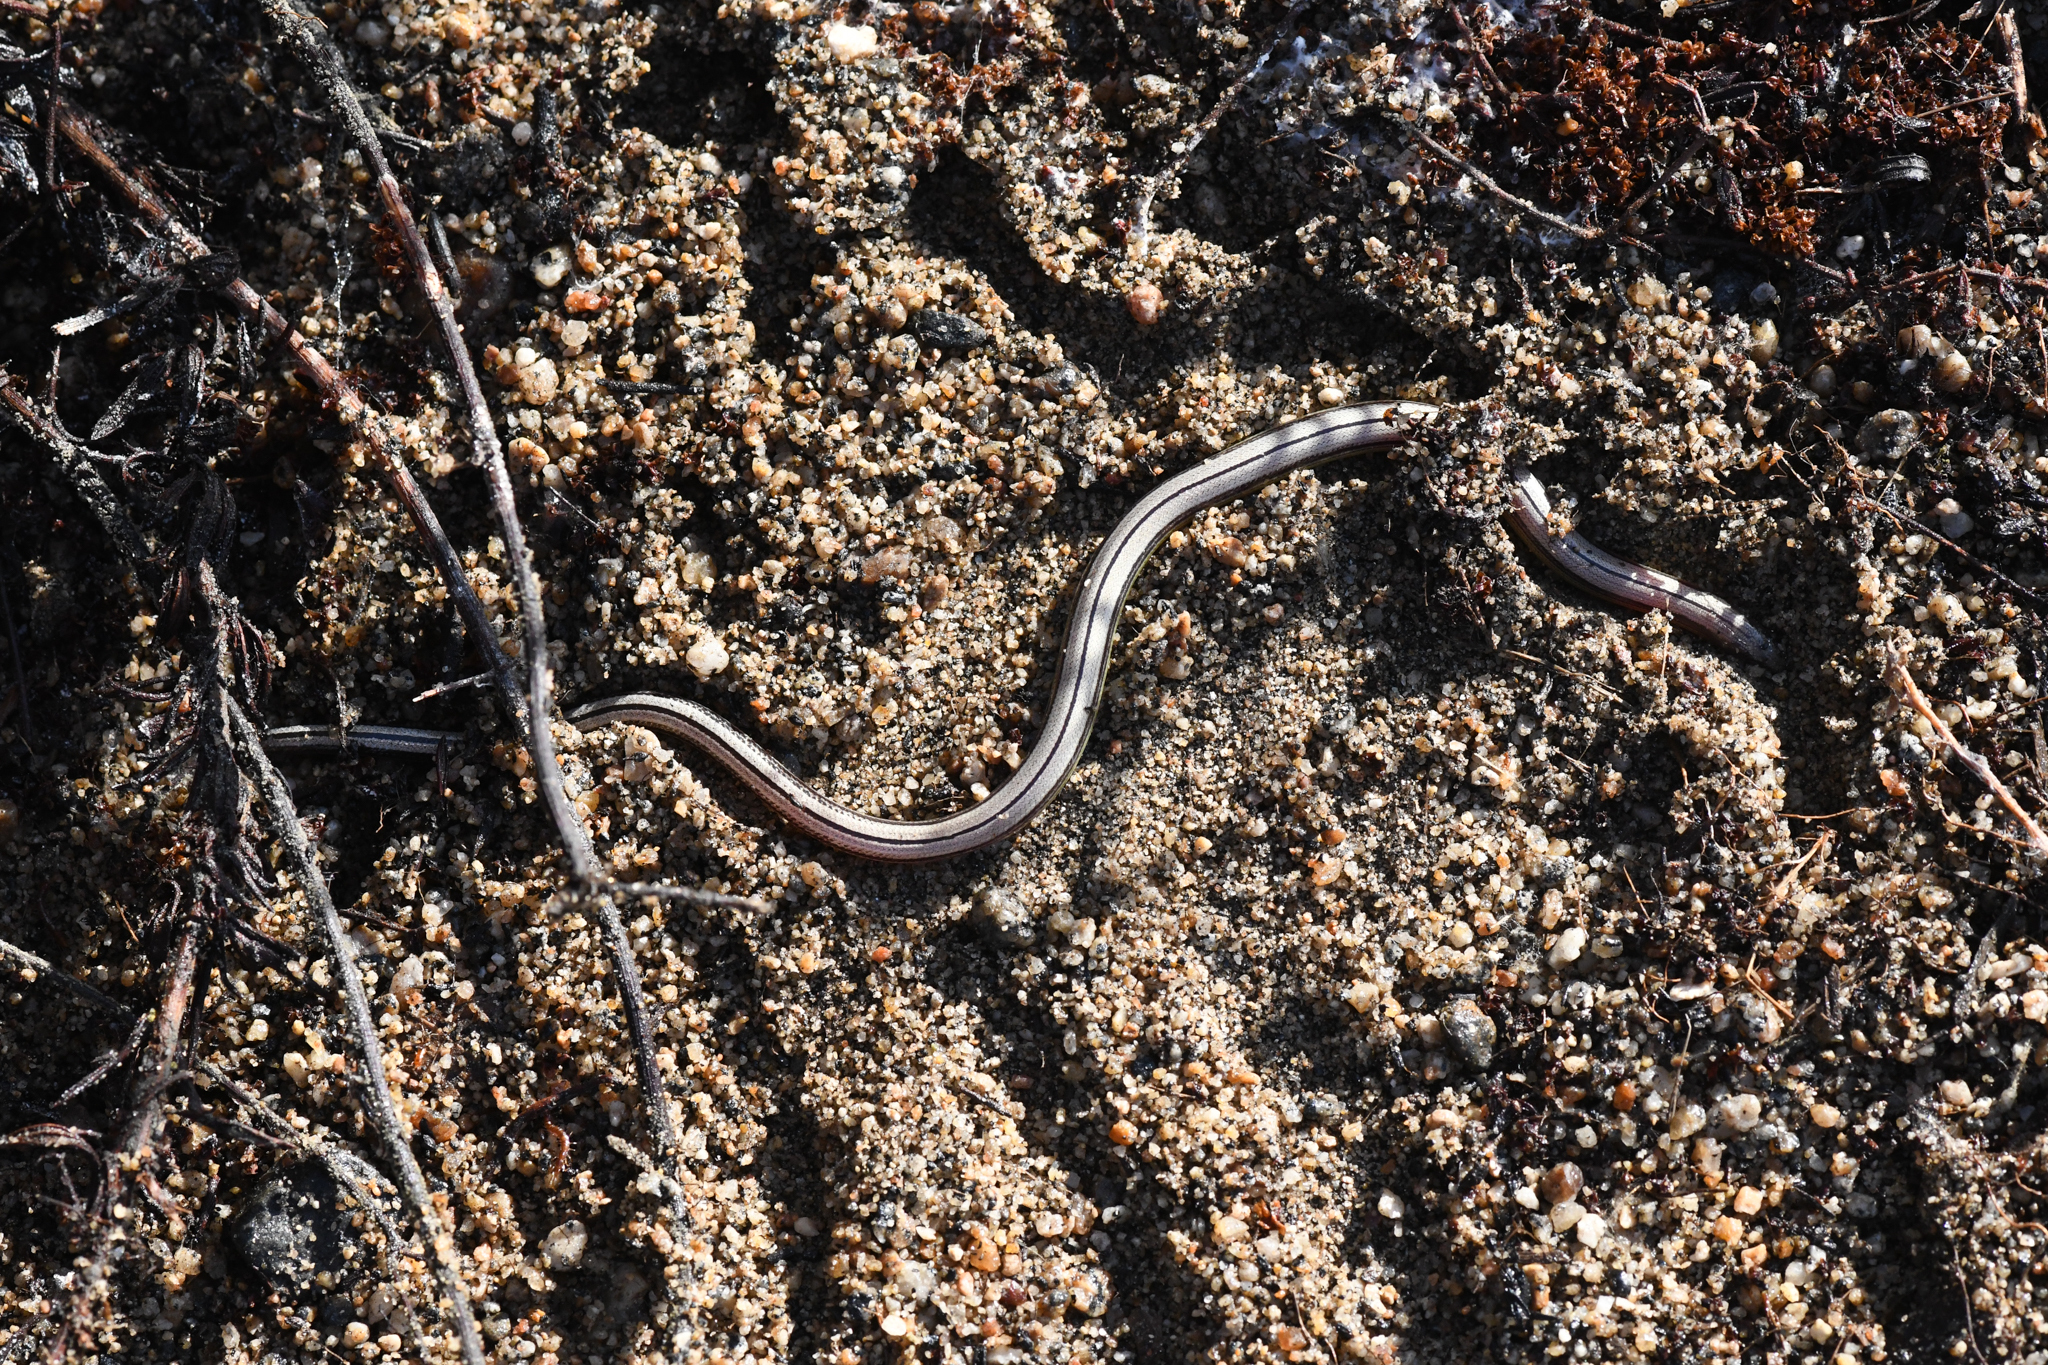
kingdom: Animalia
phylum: Chordata
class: Squamata
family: Anguidae
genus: Anniella
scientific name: Anniella stebbinsi
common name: Southern california legless lizard
